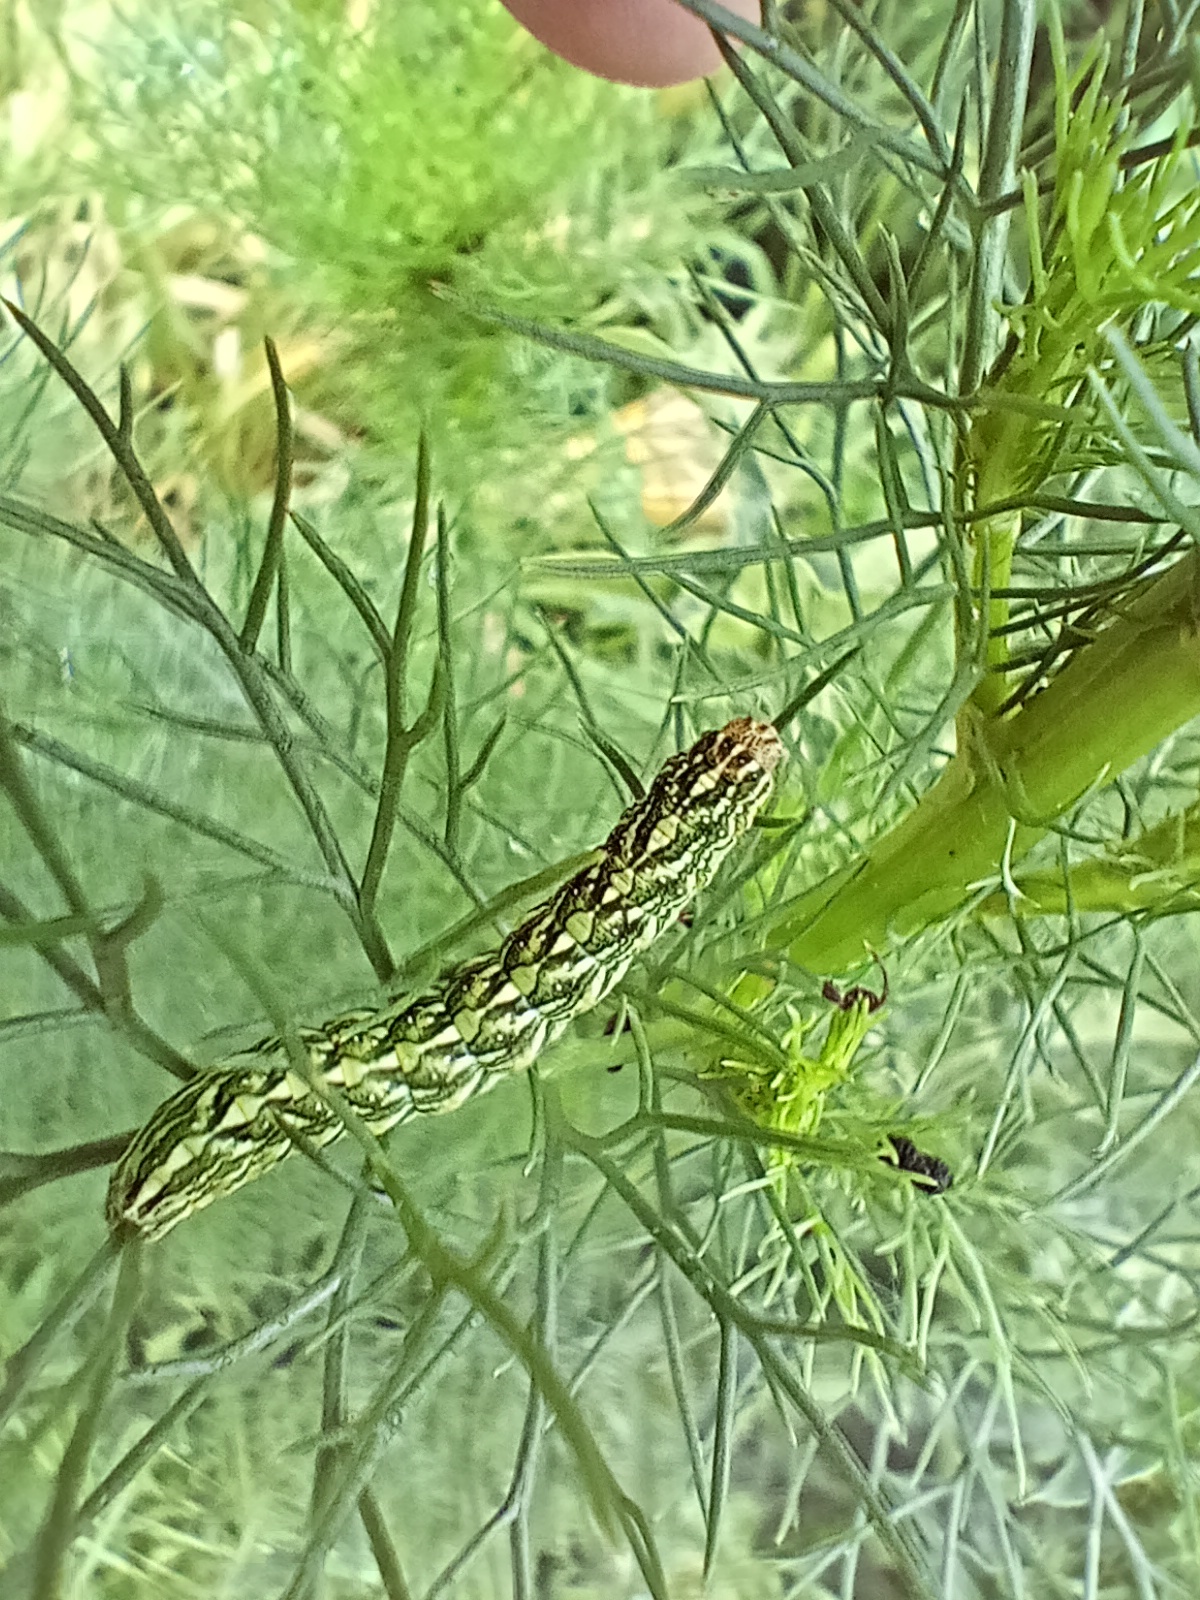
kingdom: Animalia
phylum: Arthropoda
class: Insecta
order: Lepidoptera
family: Noctuidae
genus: Cucullia
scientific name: Cucullia chamomillae
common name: Chamomile shark
